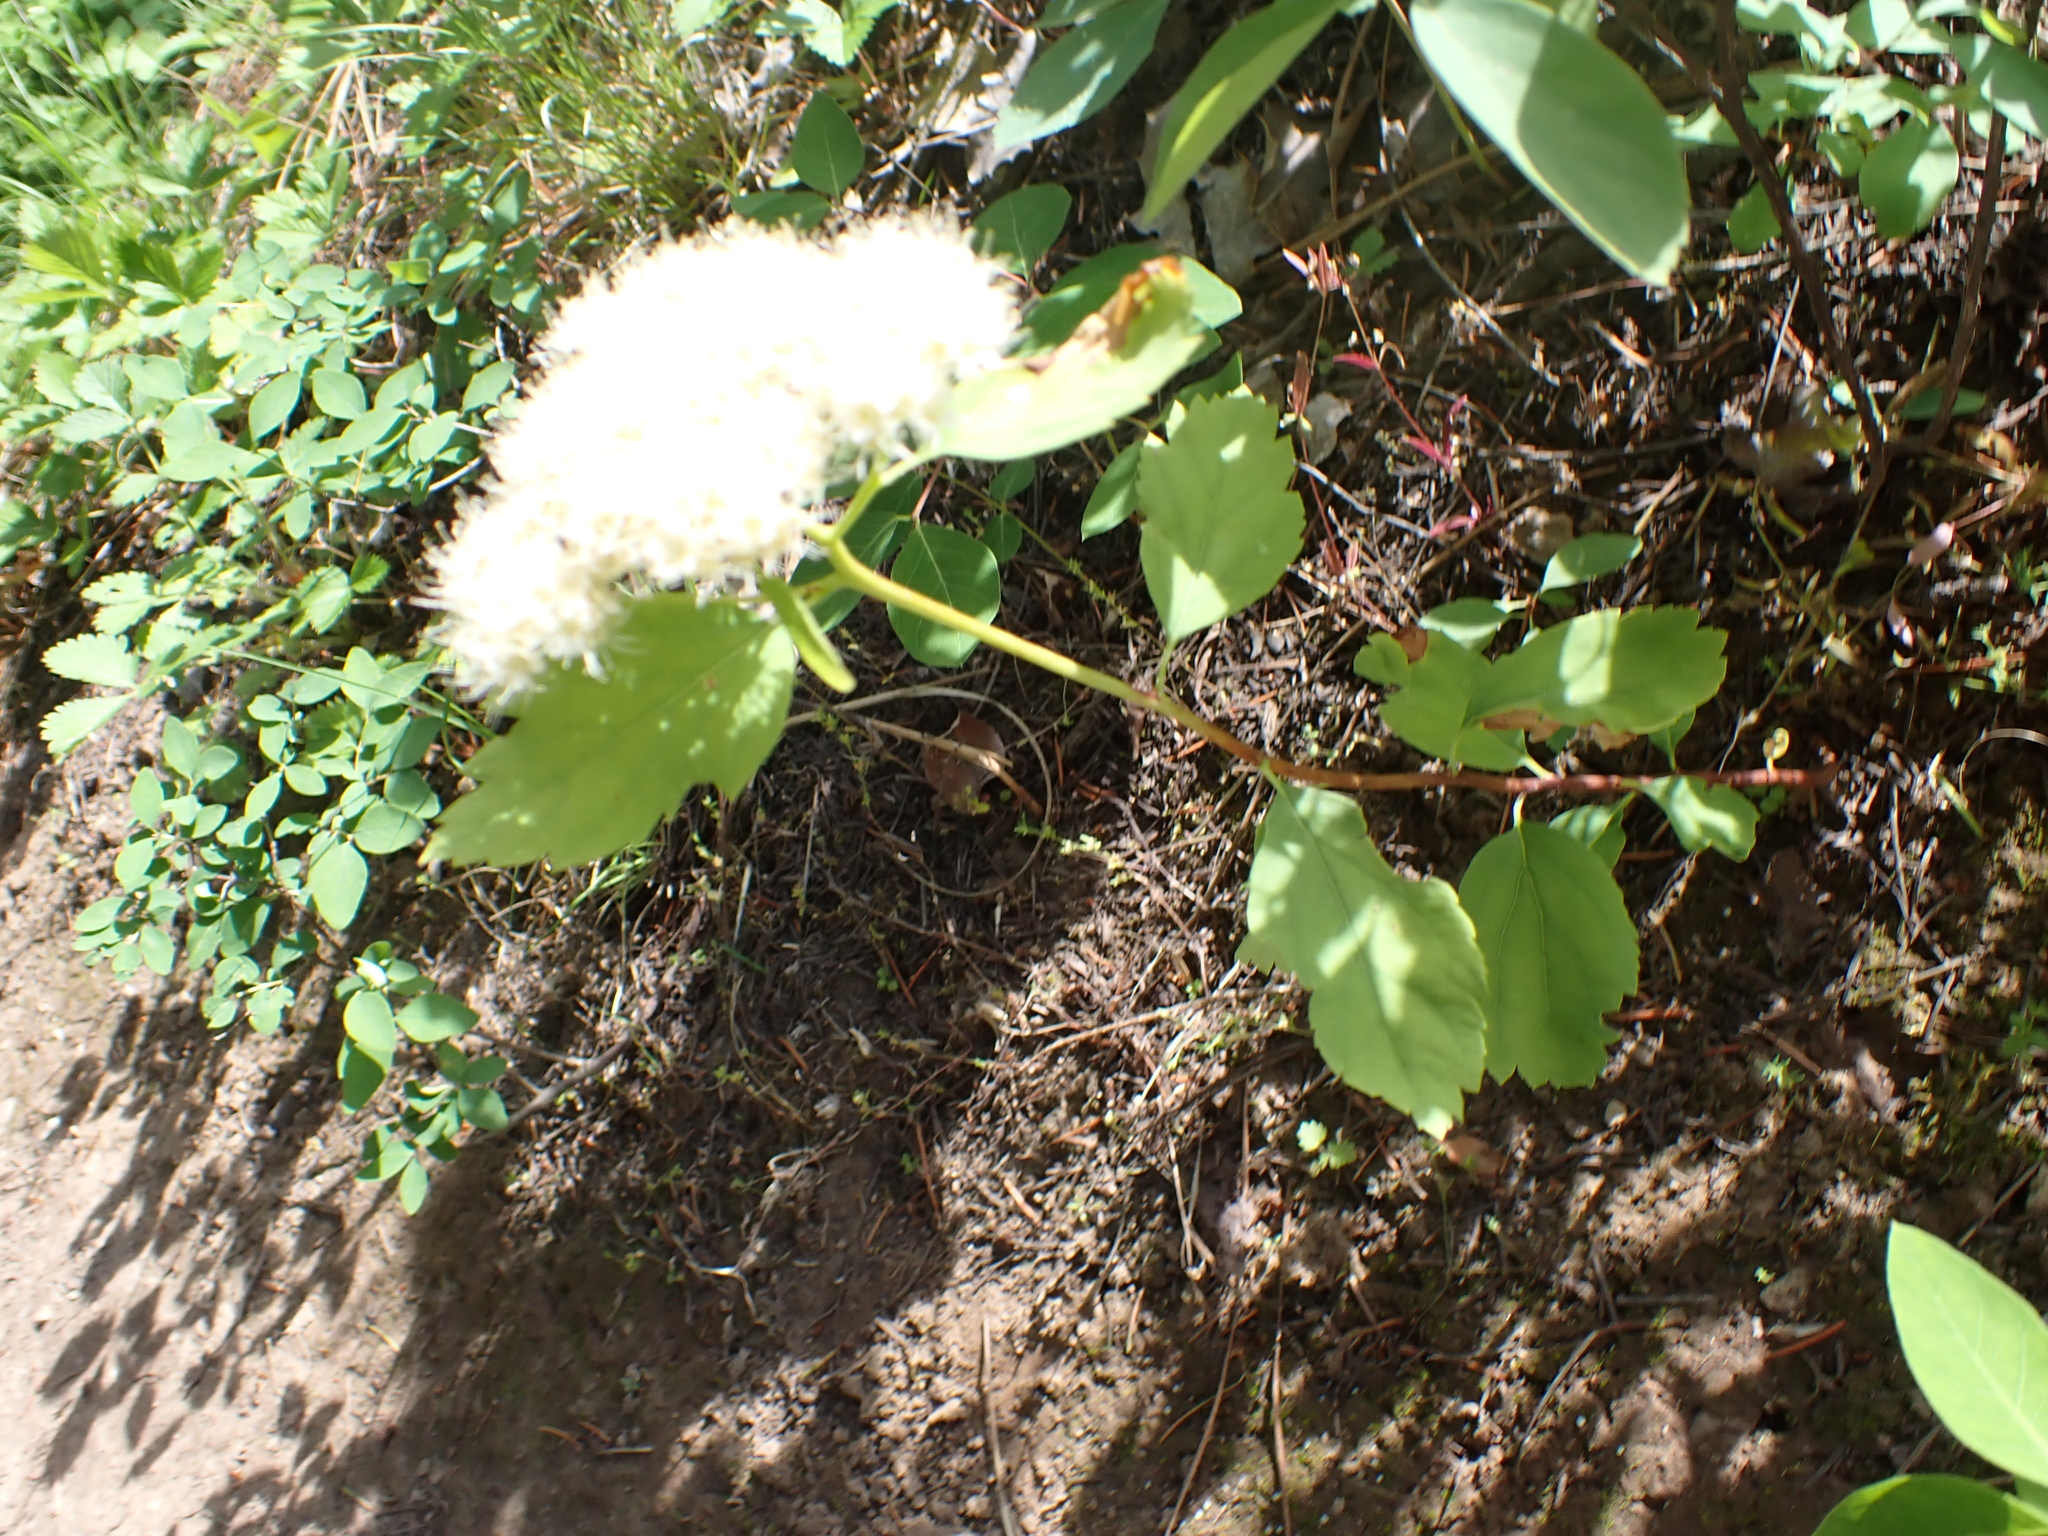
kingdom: Plantae
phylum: Tracheophyta
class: Magnoliopsida
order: Rosales
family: Rosaceae
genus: Spiraea
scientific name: Spiraea lucida
